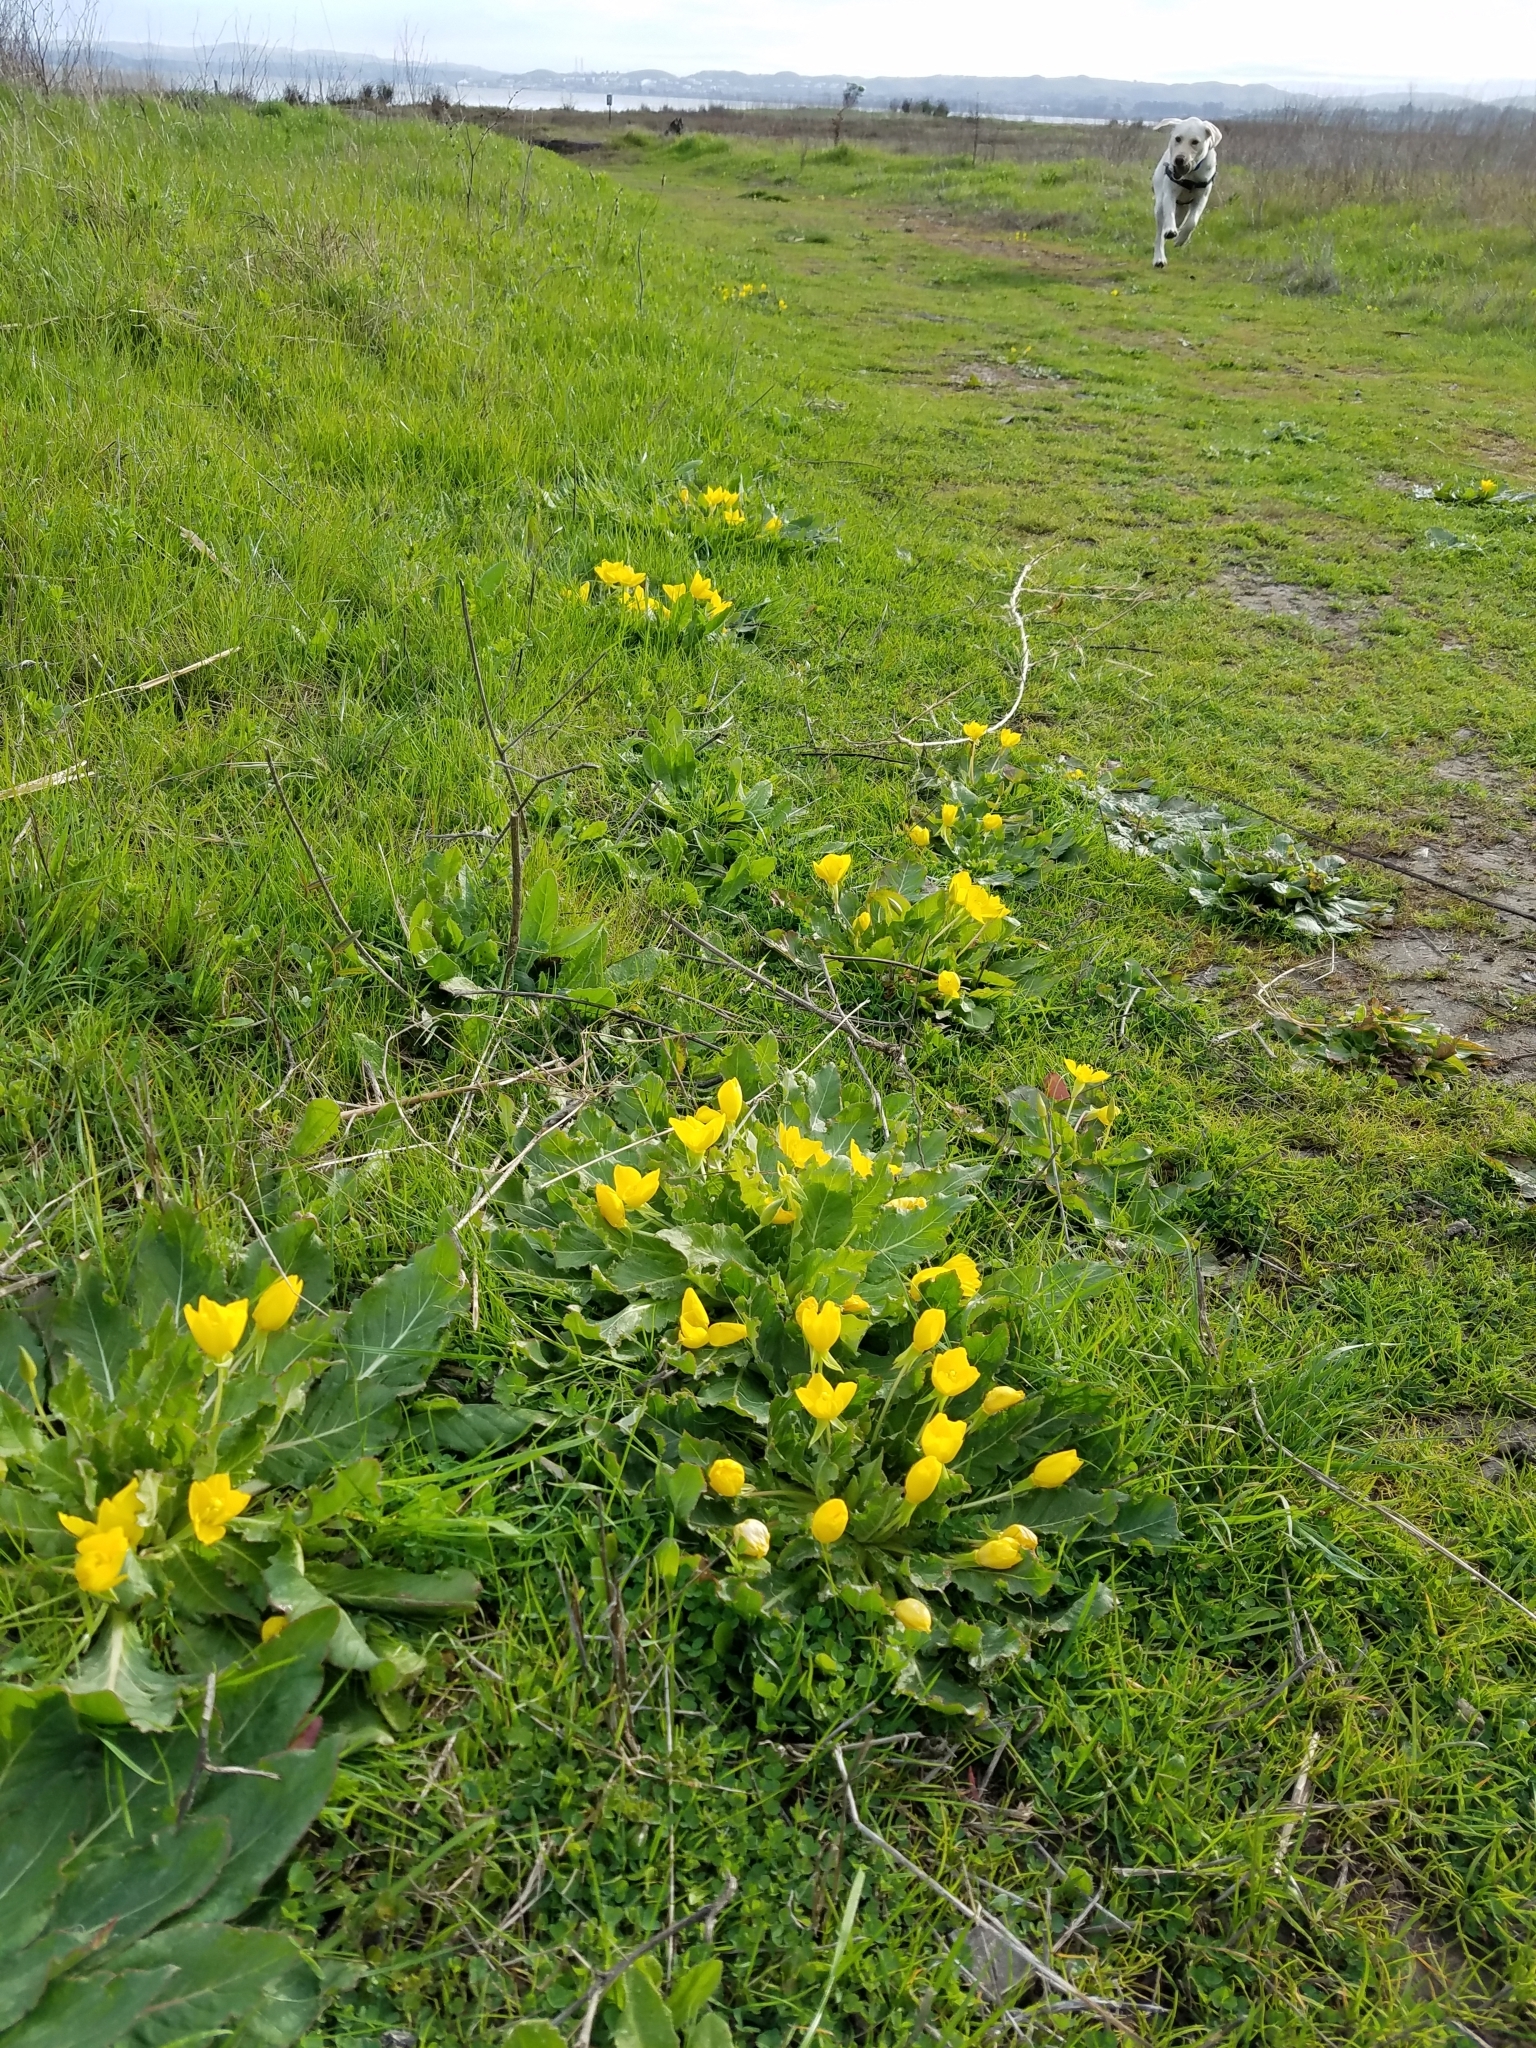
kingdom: Plantae
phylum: Tracheophyta
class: Magnoliopsida
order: Myrtales
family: Onagraceae
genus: Taraxia
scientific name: Taraxia ovata
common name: Goldeneggs
